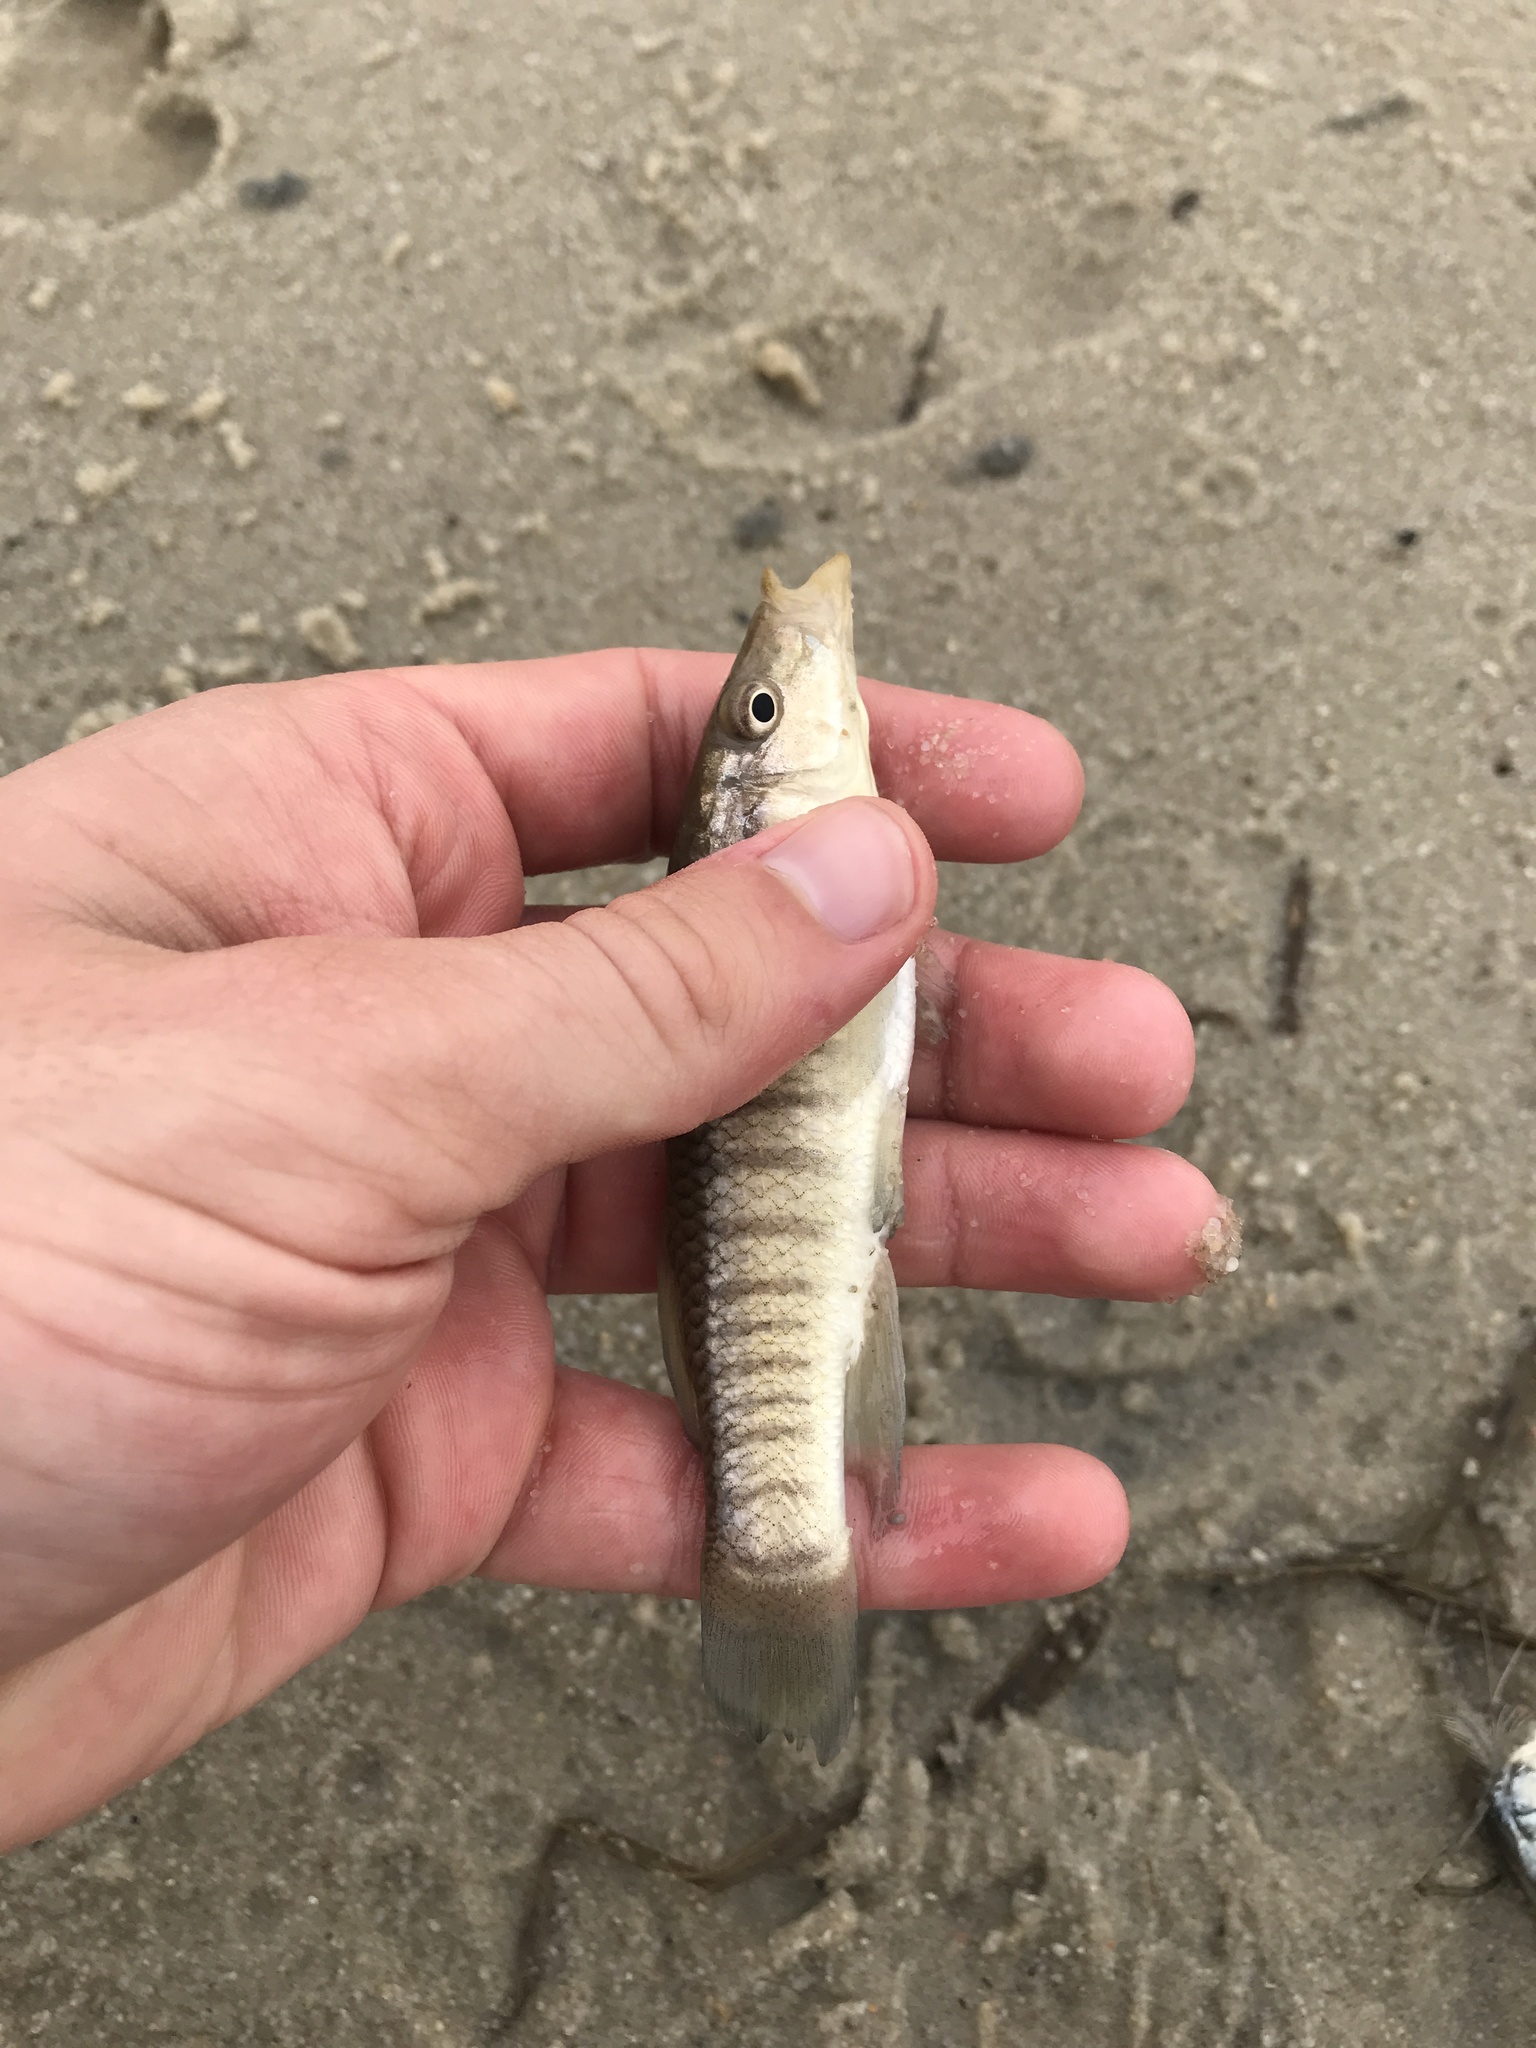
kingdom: Animalia
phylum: Chordata
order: Cyprinodontiformes
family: Fundulidae
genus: Fundulus
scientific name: Fundulus similis
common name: Longnose killifish
